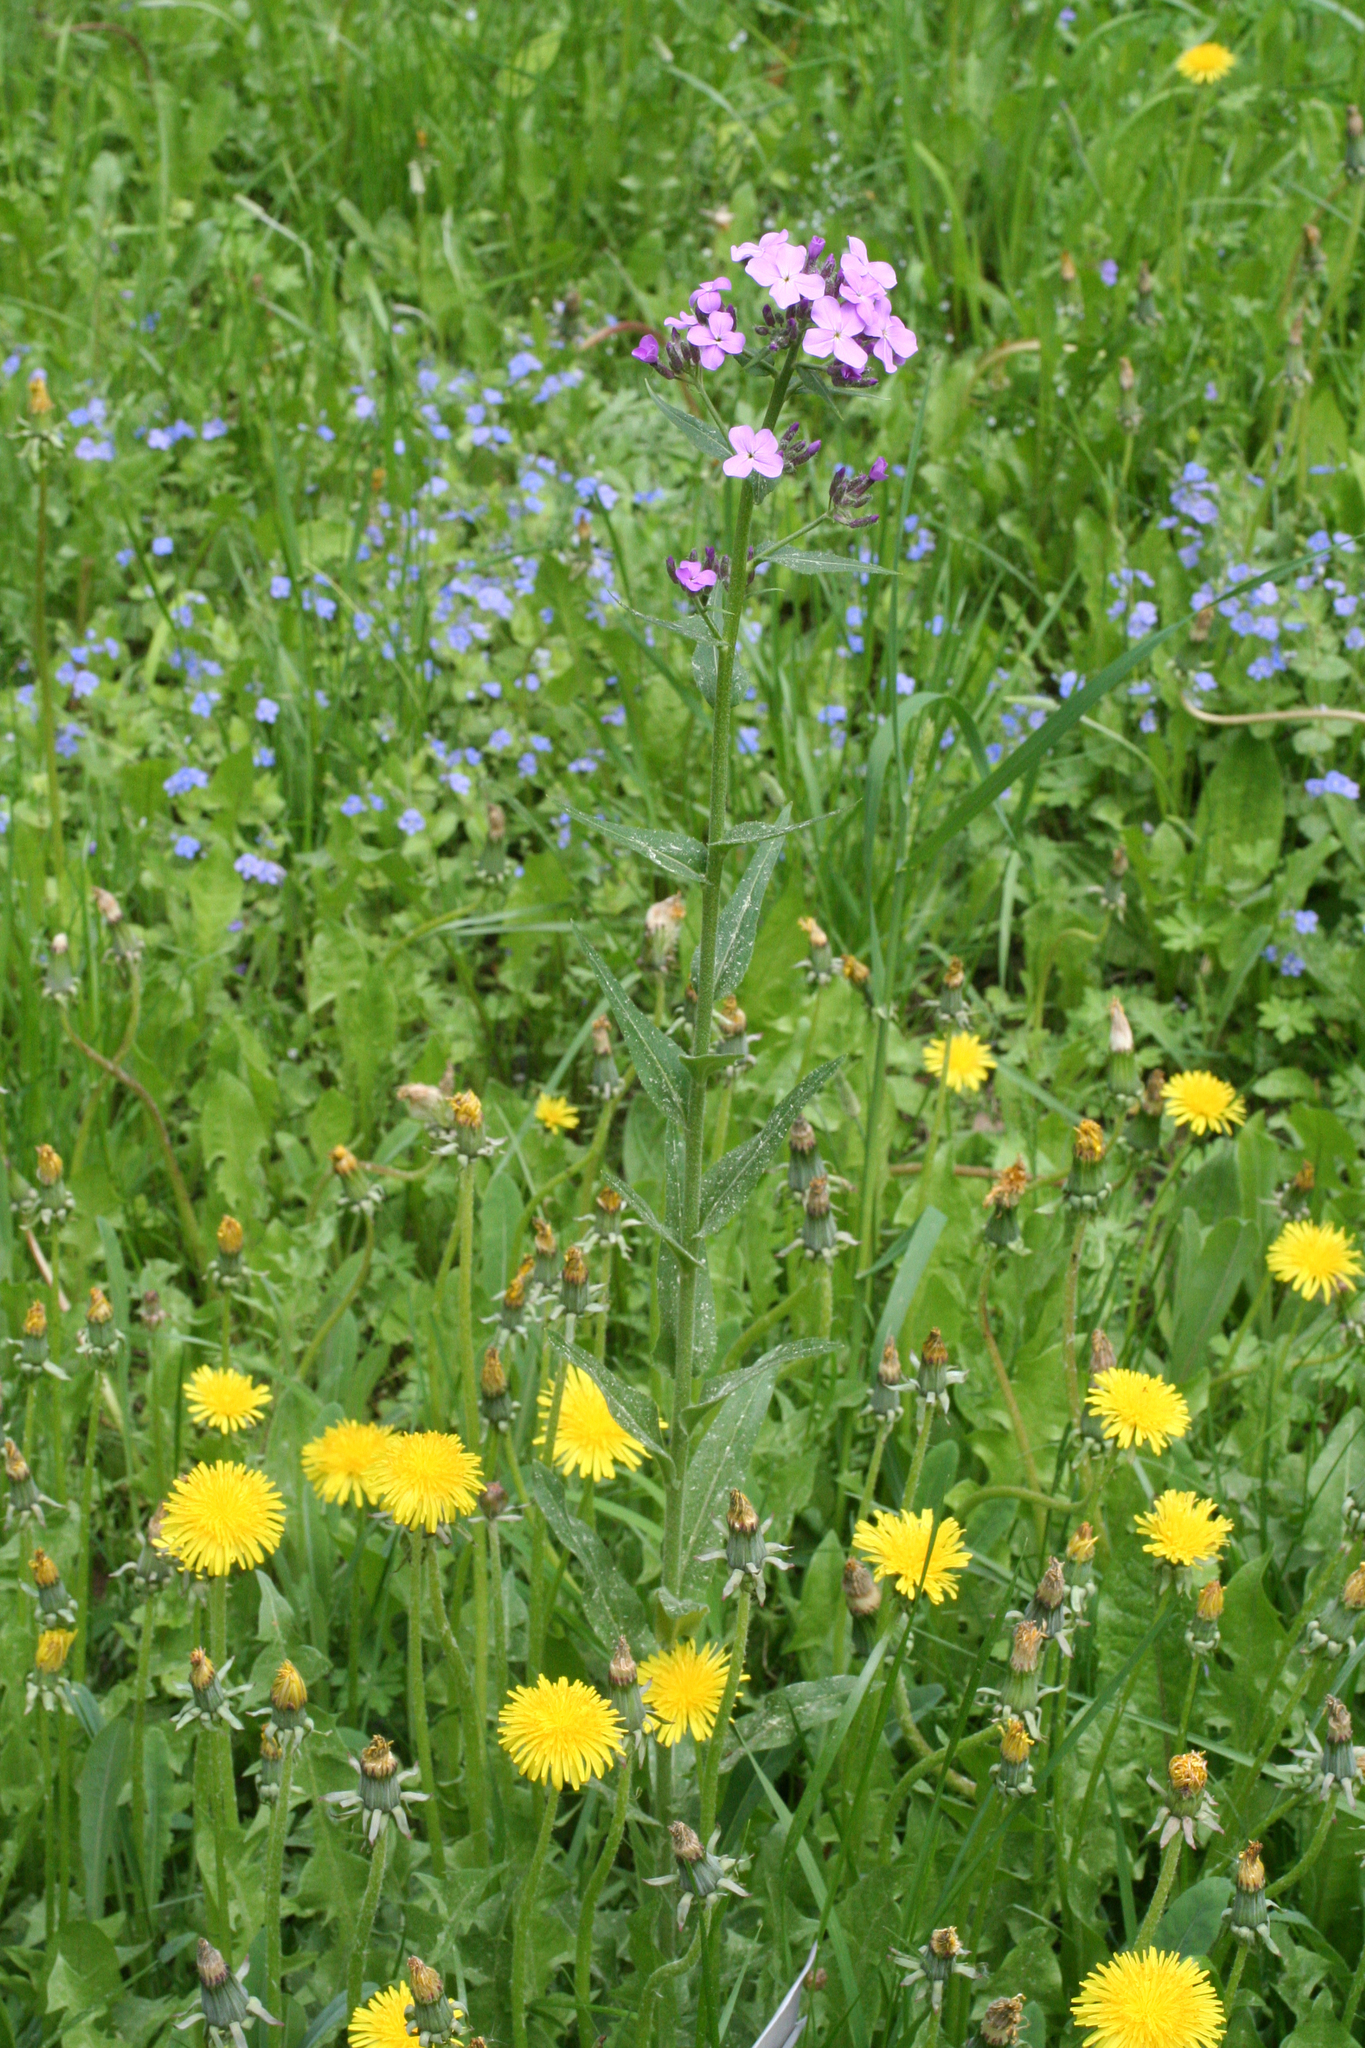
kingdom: Plantae
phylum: Tracheophyta
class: Magnoliopsida
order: Brassicales
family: Brassicaceae
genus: Hesperis
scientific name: Hesperis sibirica
